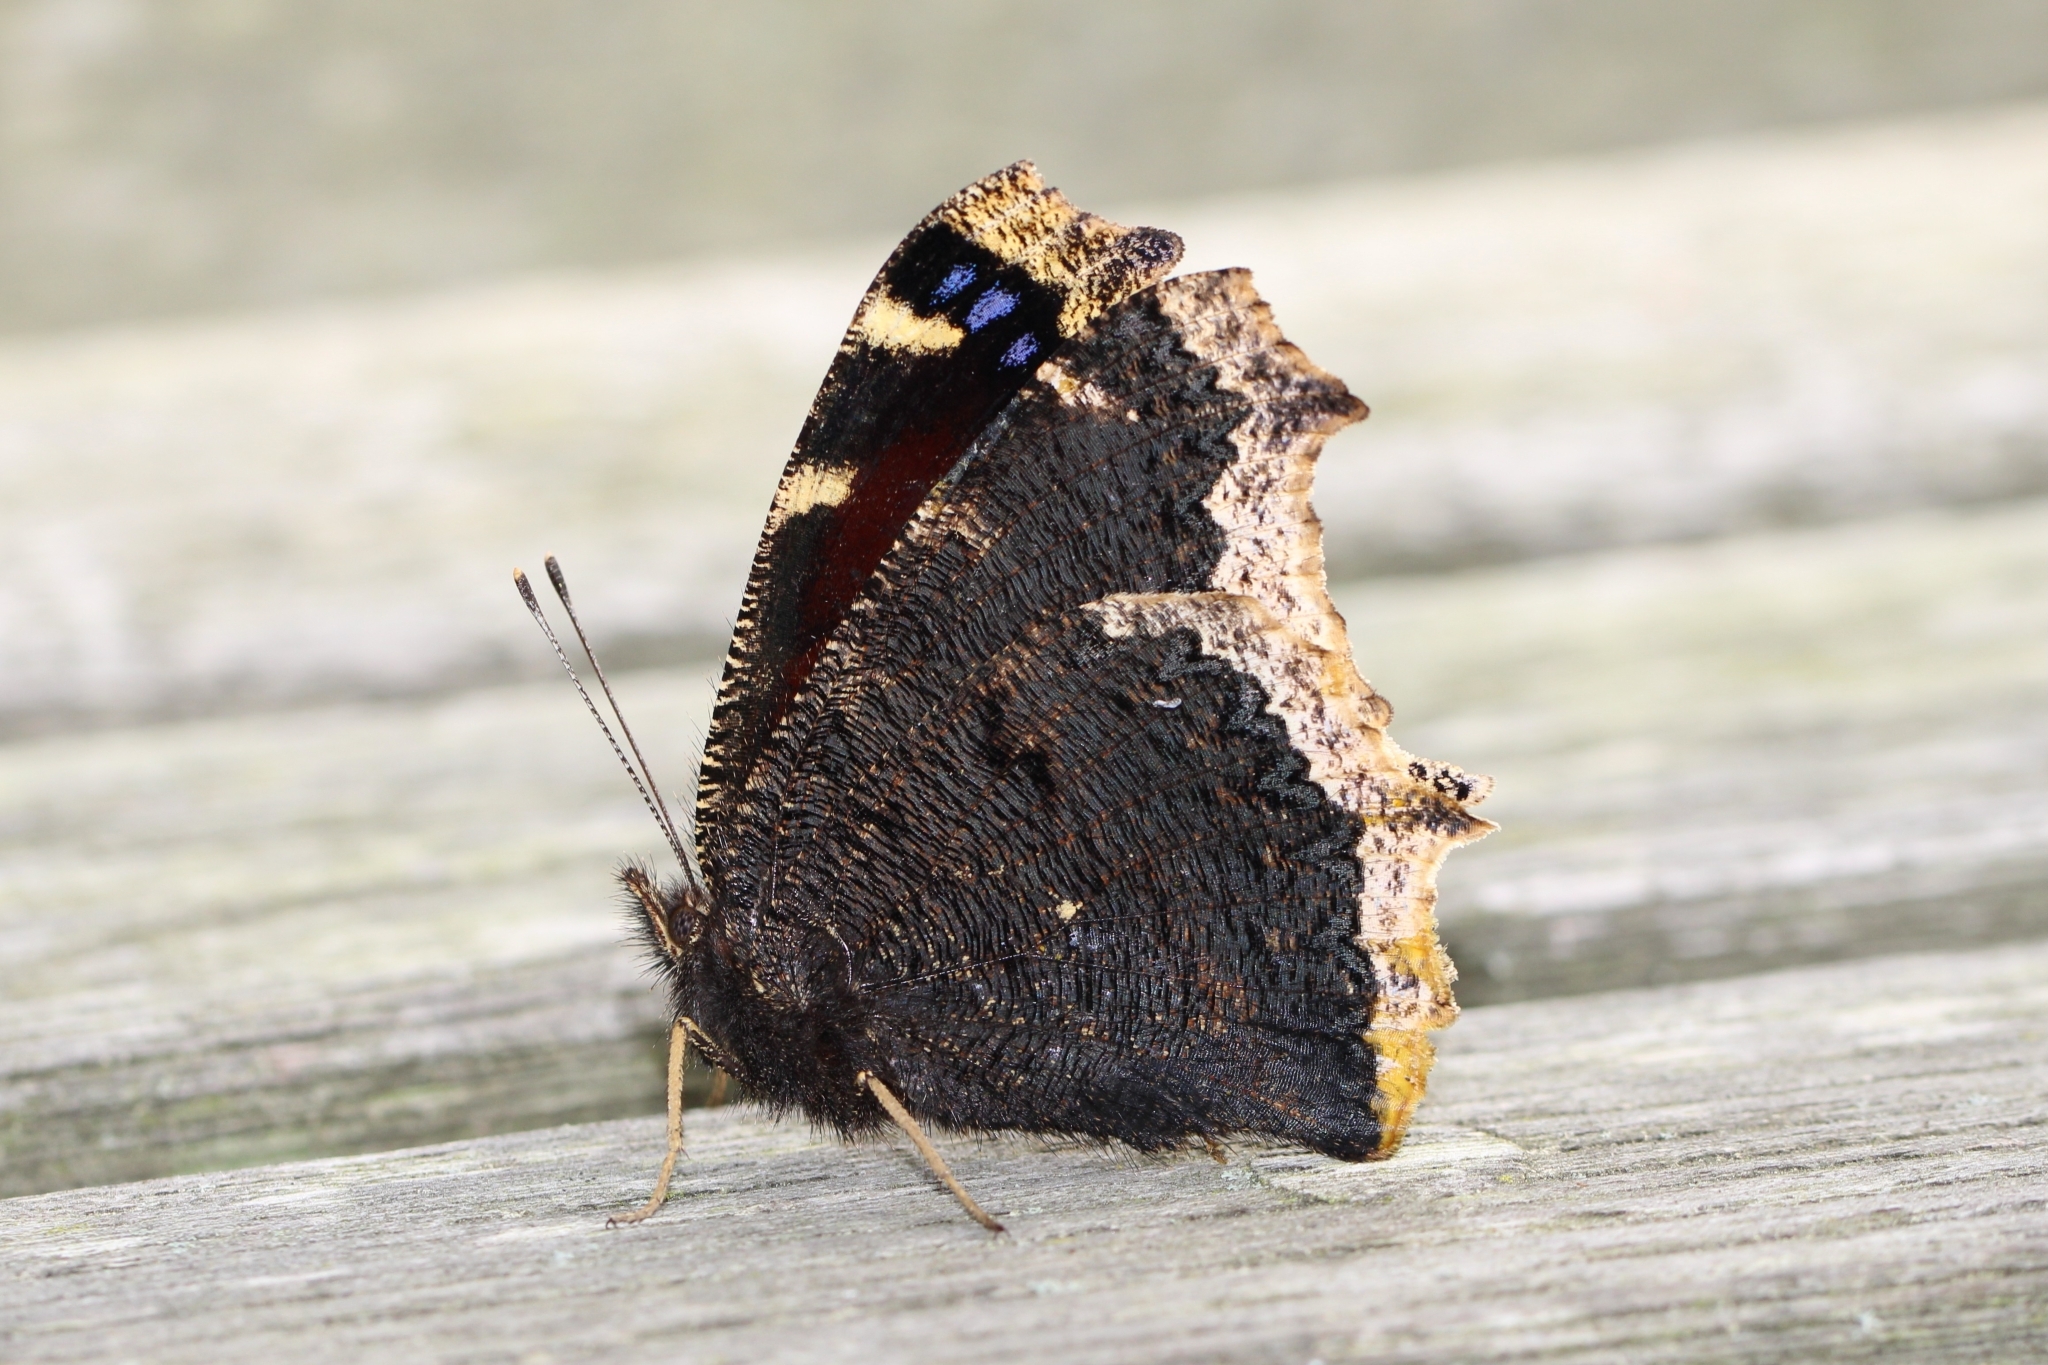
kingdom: Animalia
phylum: Arthropoda
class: Insecta
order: Lepidoptera
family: Nymphalidae
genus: Nymphalis
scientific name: Nymphalis antiopa
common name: Camberwell beauty
